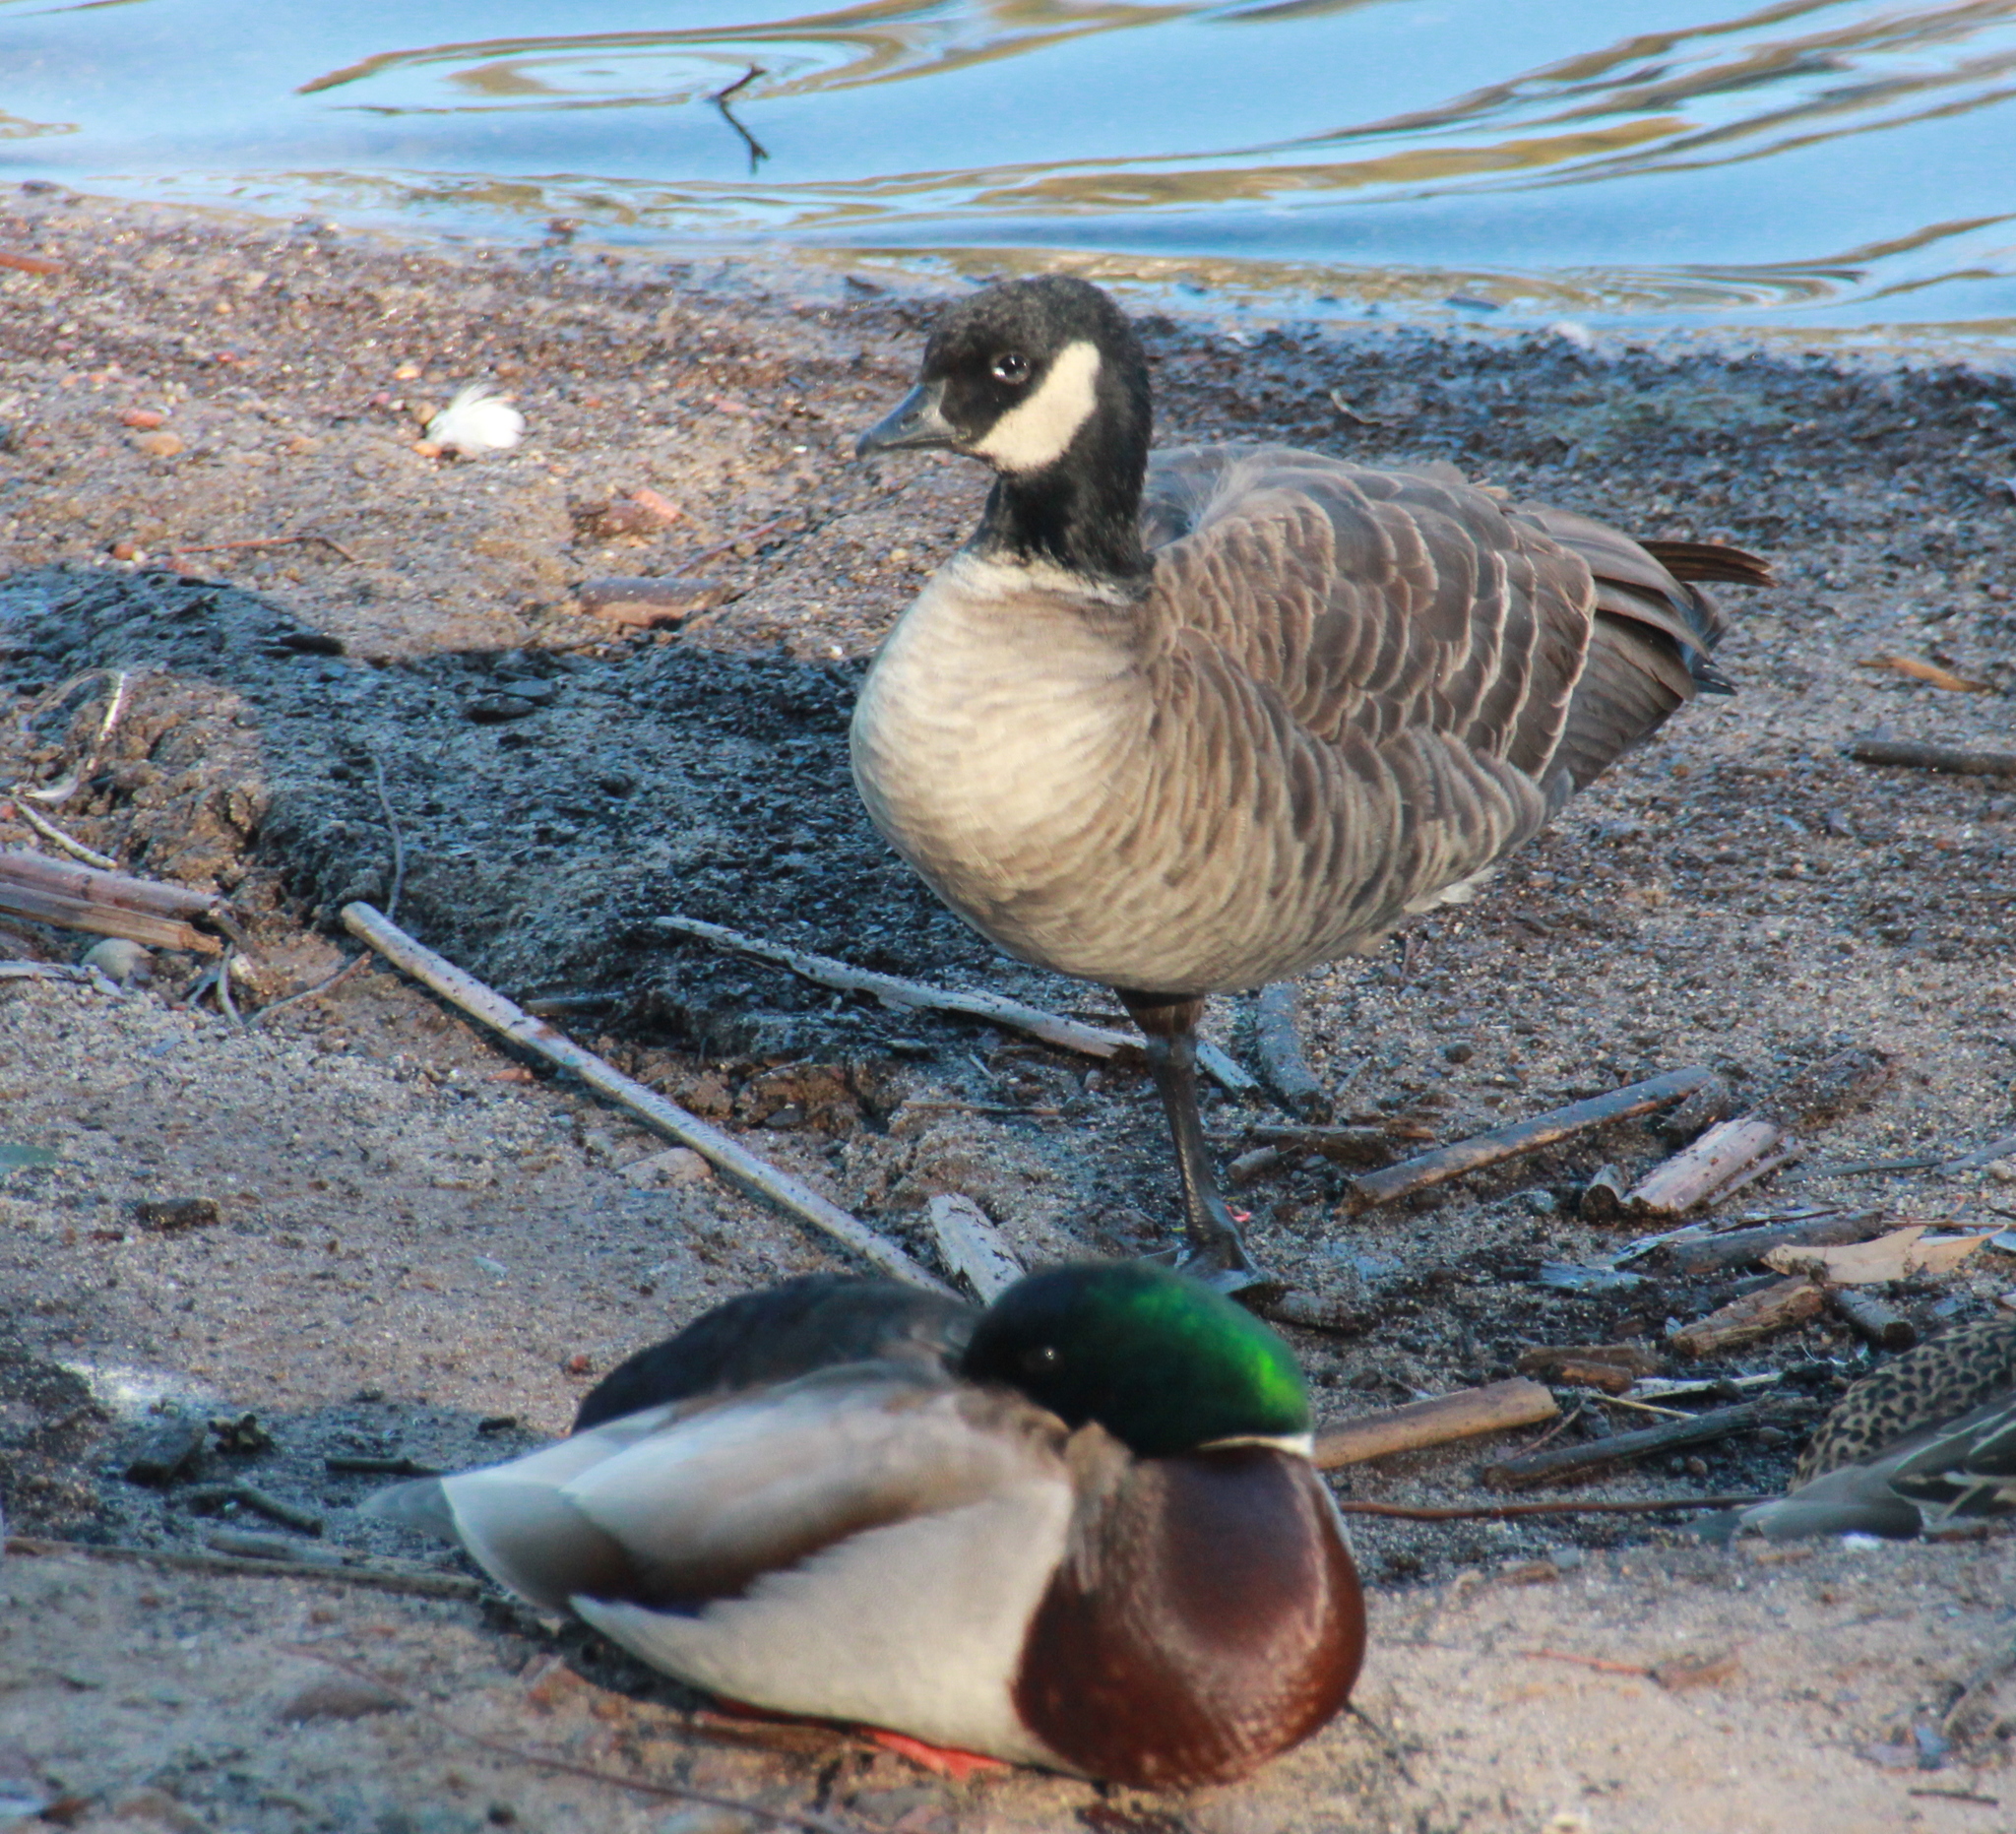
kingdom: Animalia
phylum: Chordata
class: Aves
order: Anseriformes
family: Anatidae
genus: Branta
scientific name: Branta hutchinsii
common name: Cackling goose
